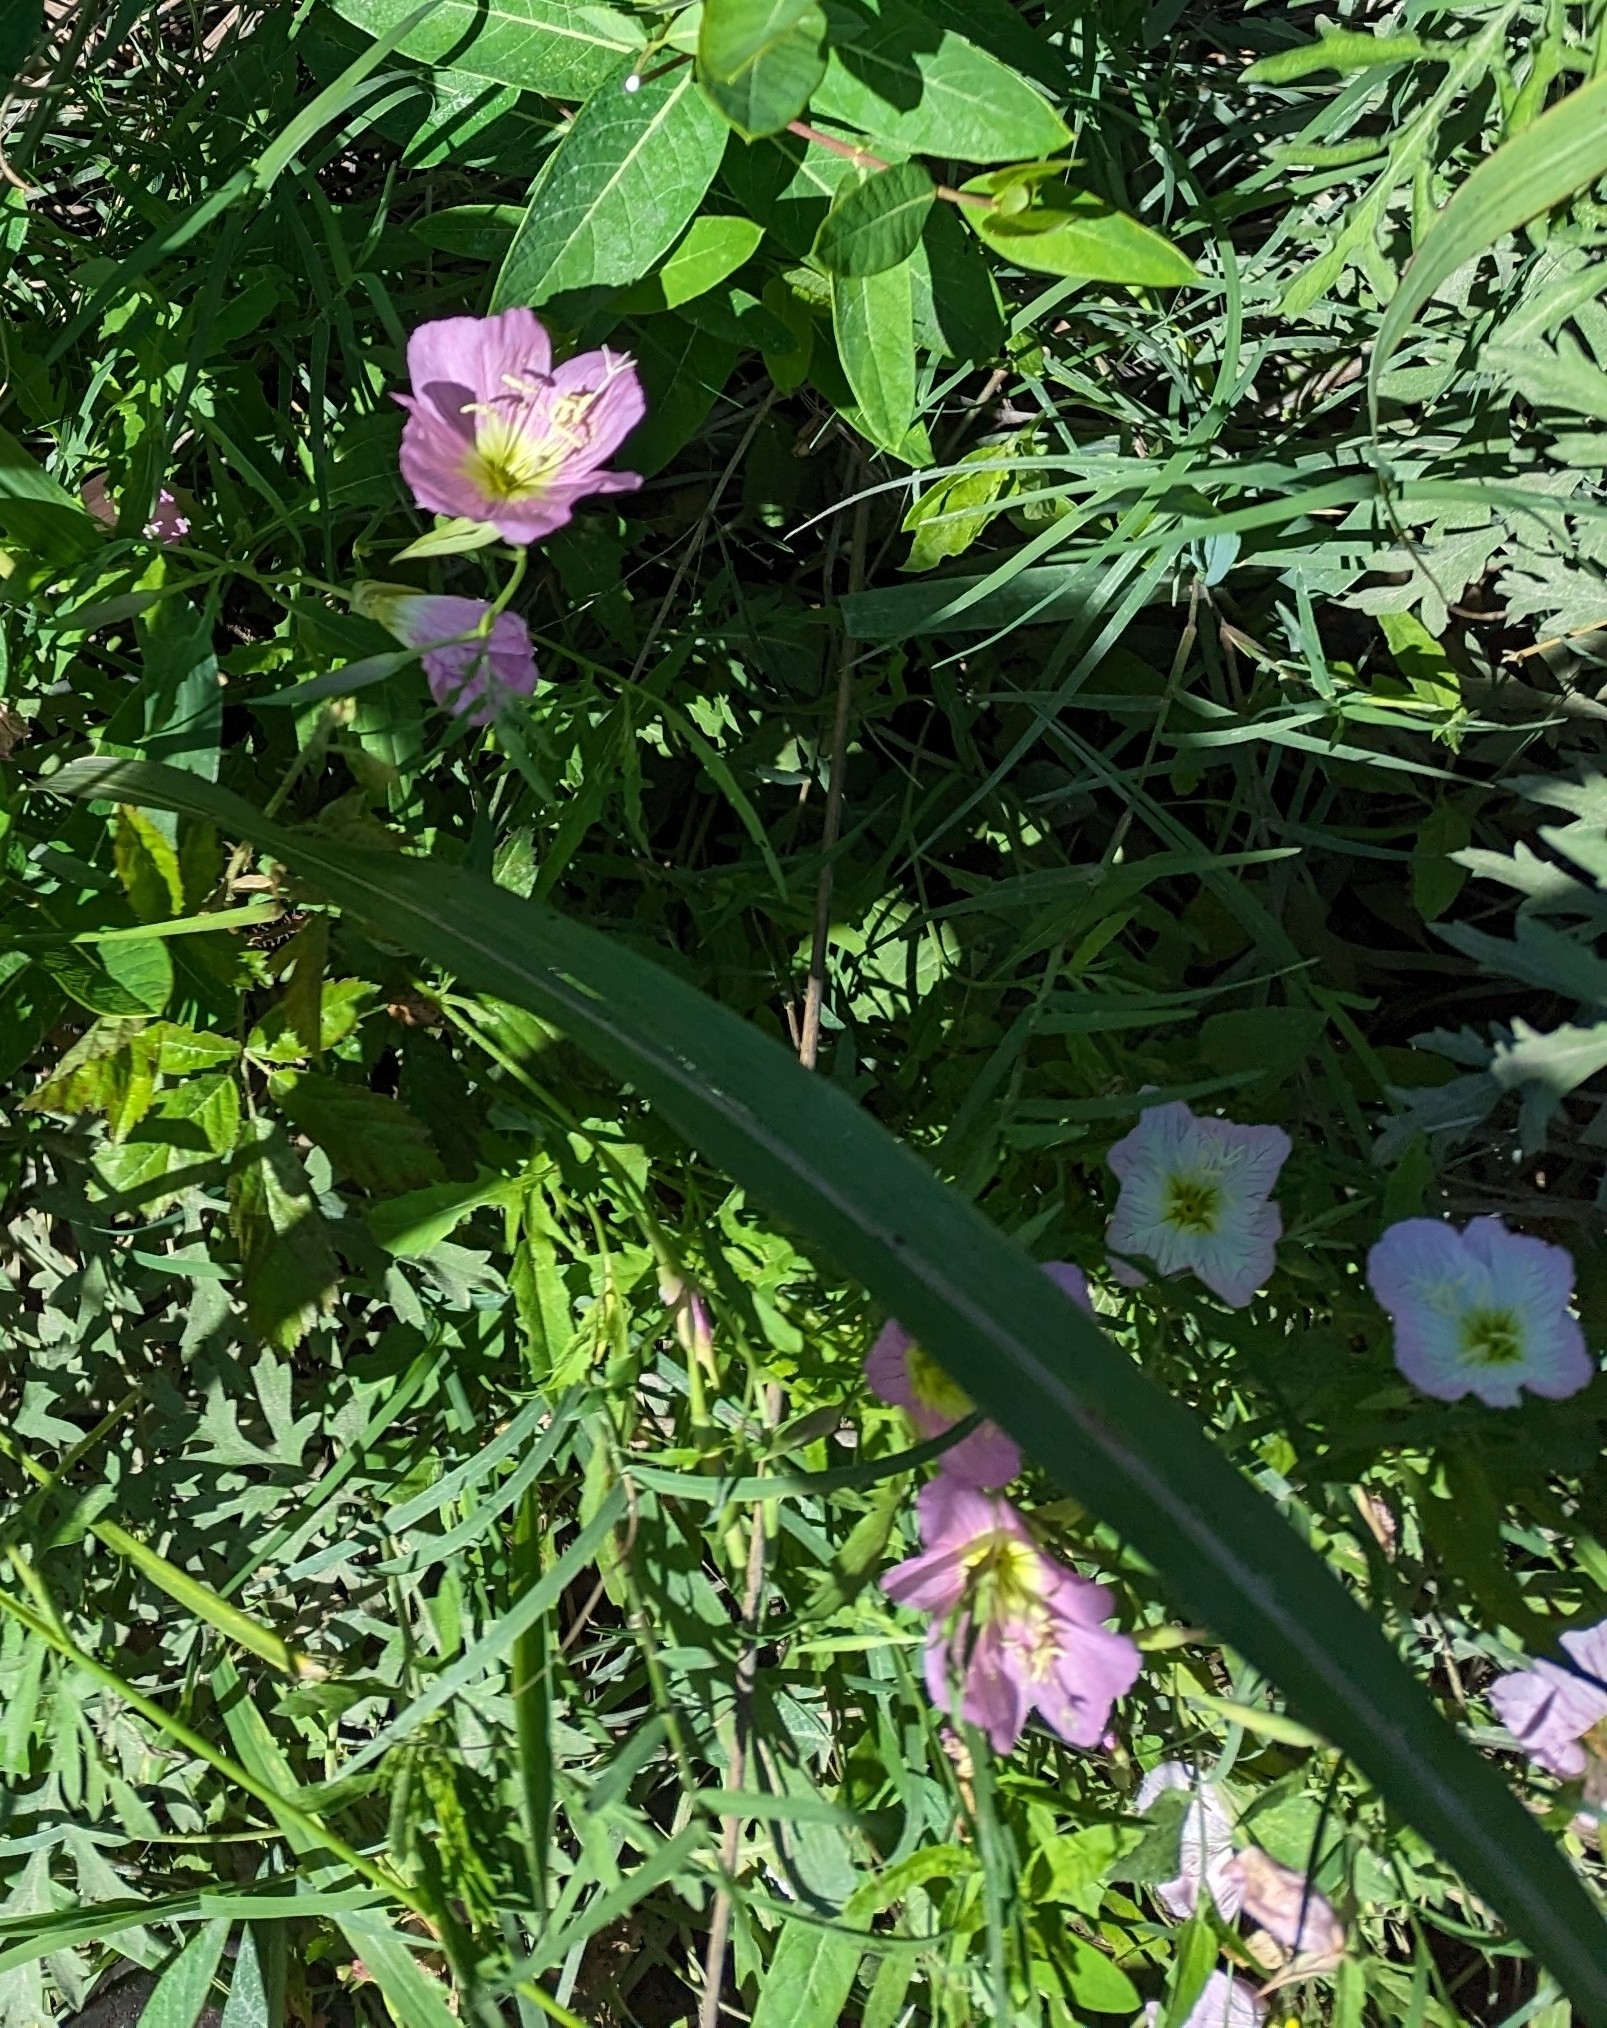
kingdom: Plantae
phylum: Tracheophyta
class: Magnoliopsida
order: Myrtales
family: Onagraceae
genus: Oenothera
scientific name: Oenothera speciosa
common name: White evening-primrose
